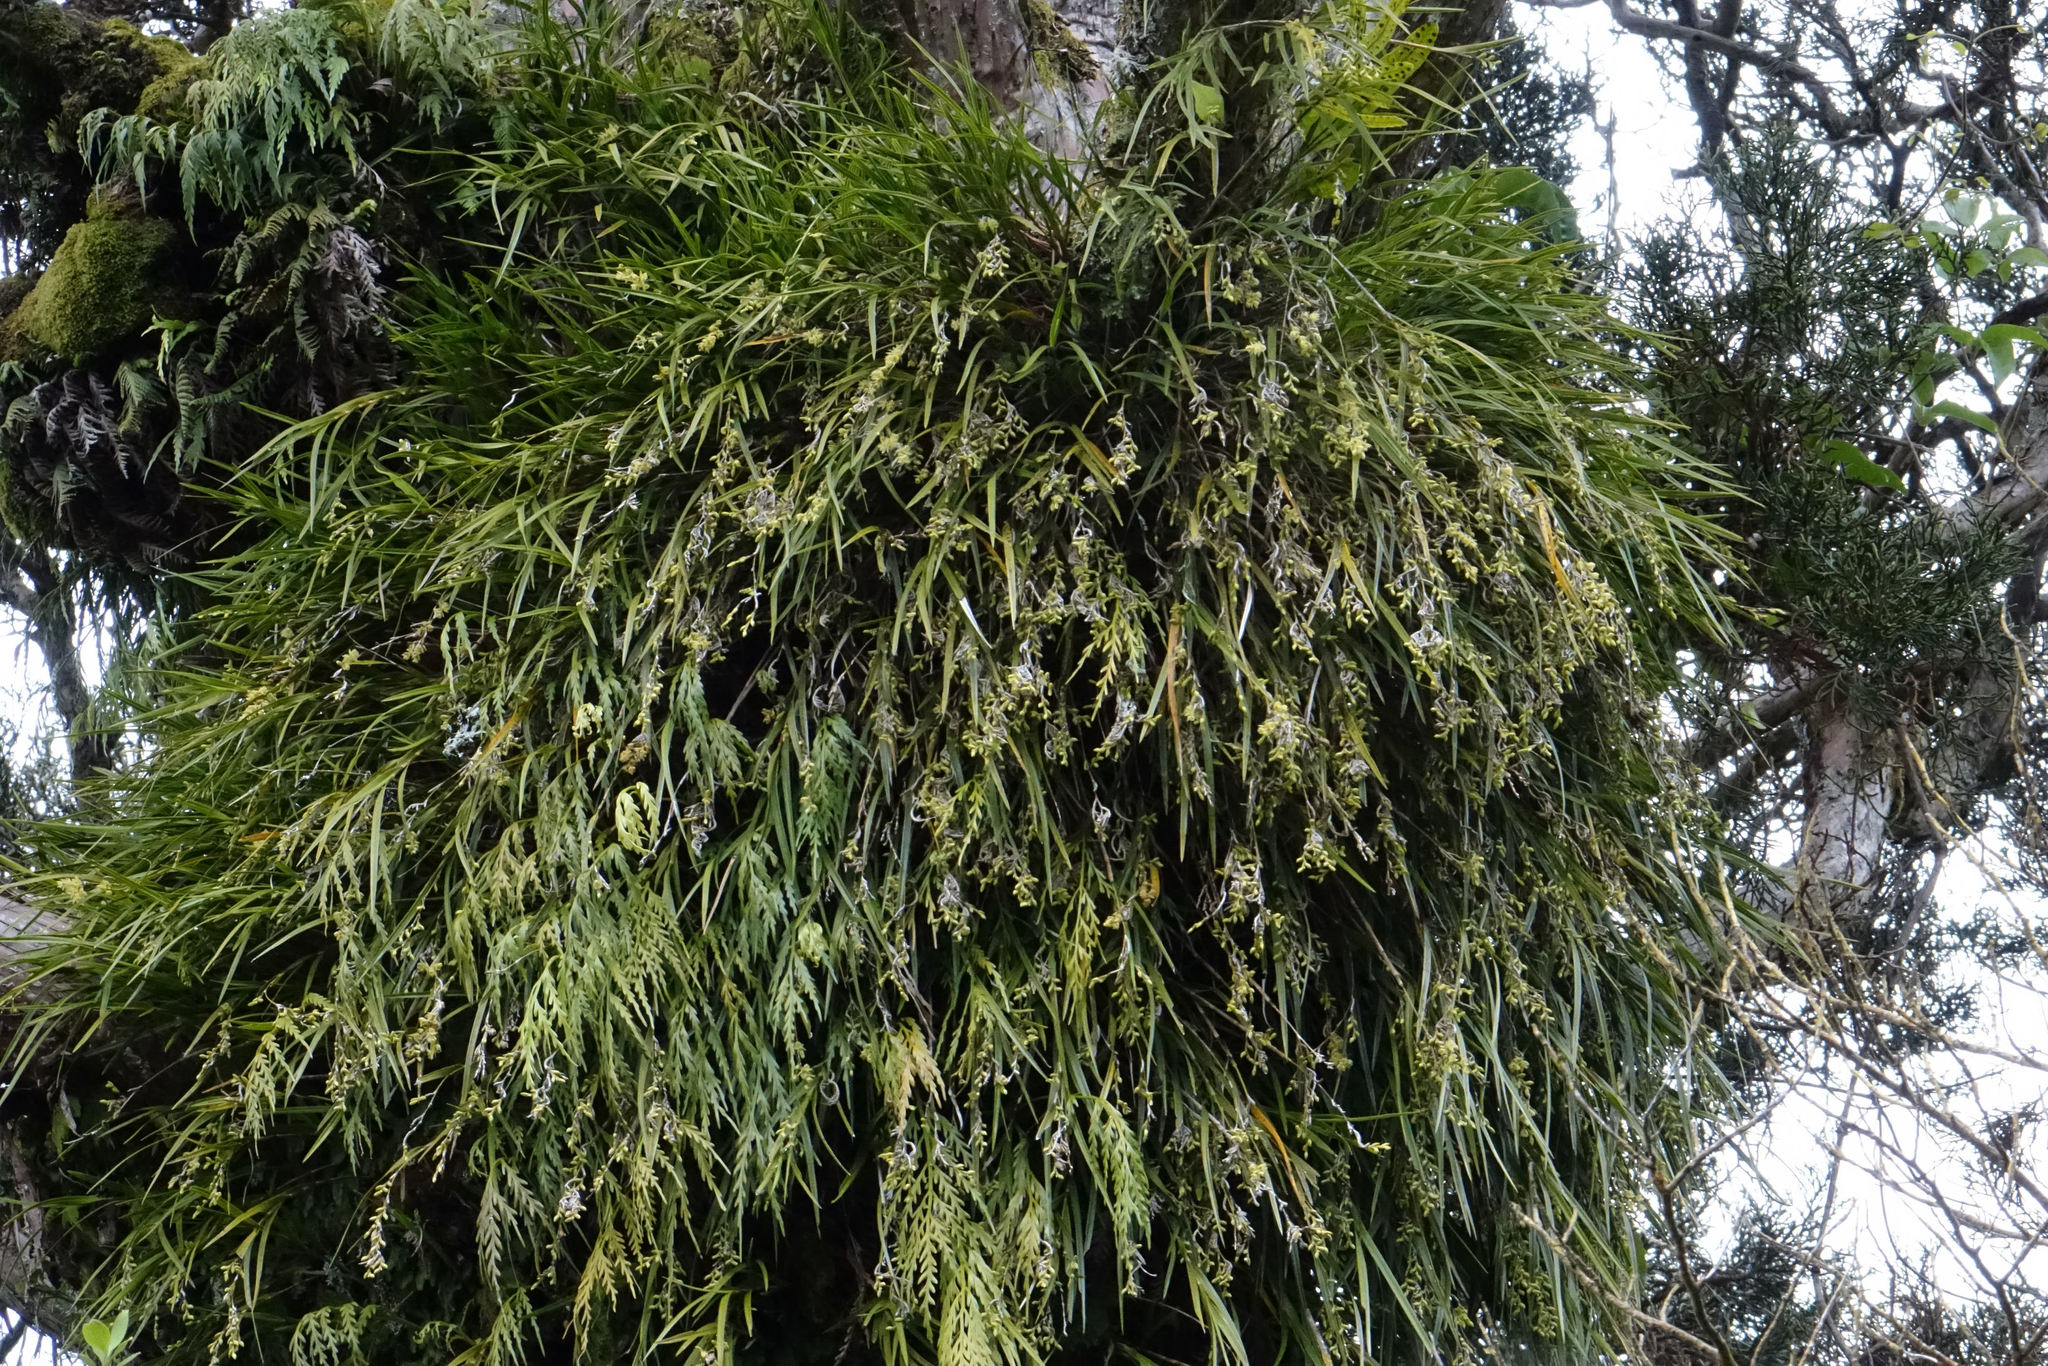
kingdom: Plantae
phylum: Tracheophyta
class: Liliopsida
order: Asparagales
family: Orchidaceae
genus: Earina
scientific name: Earina mucronata
